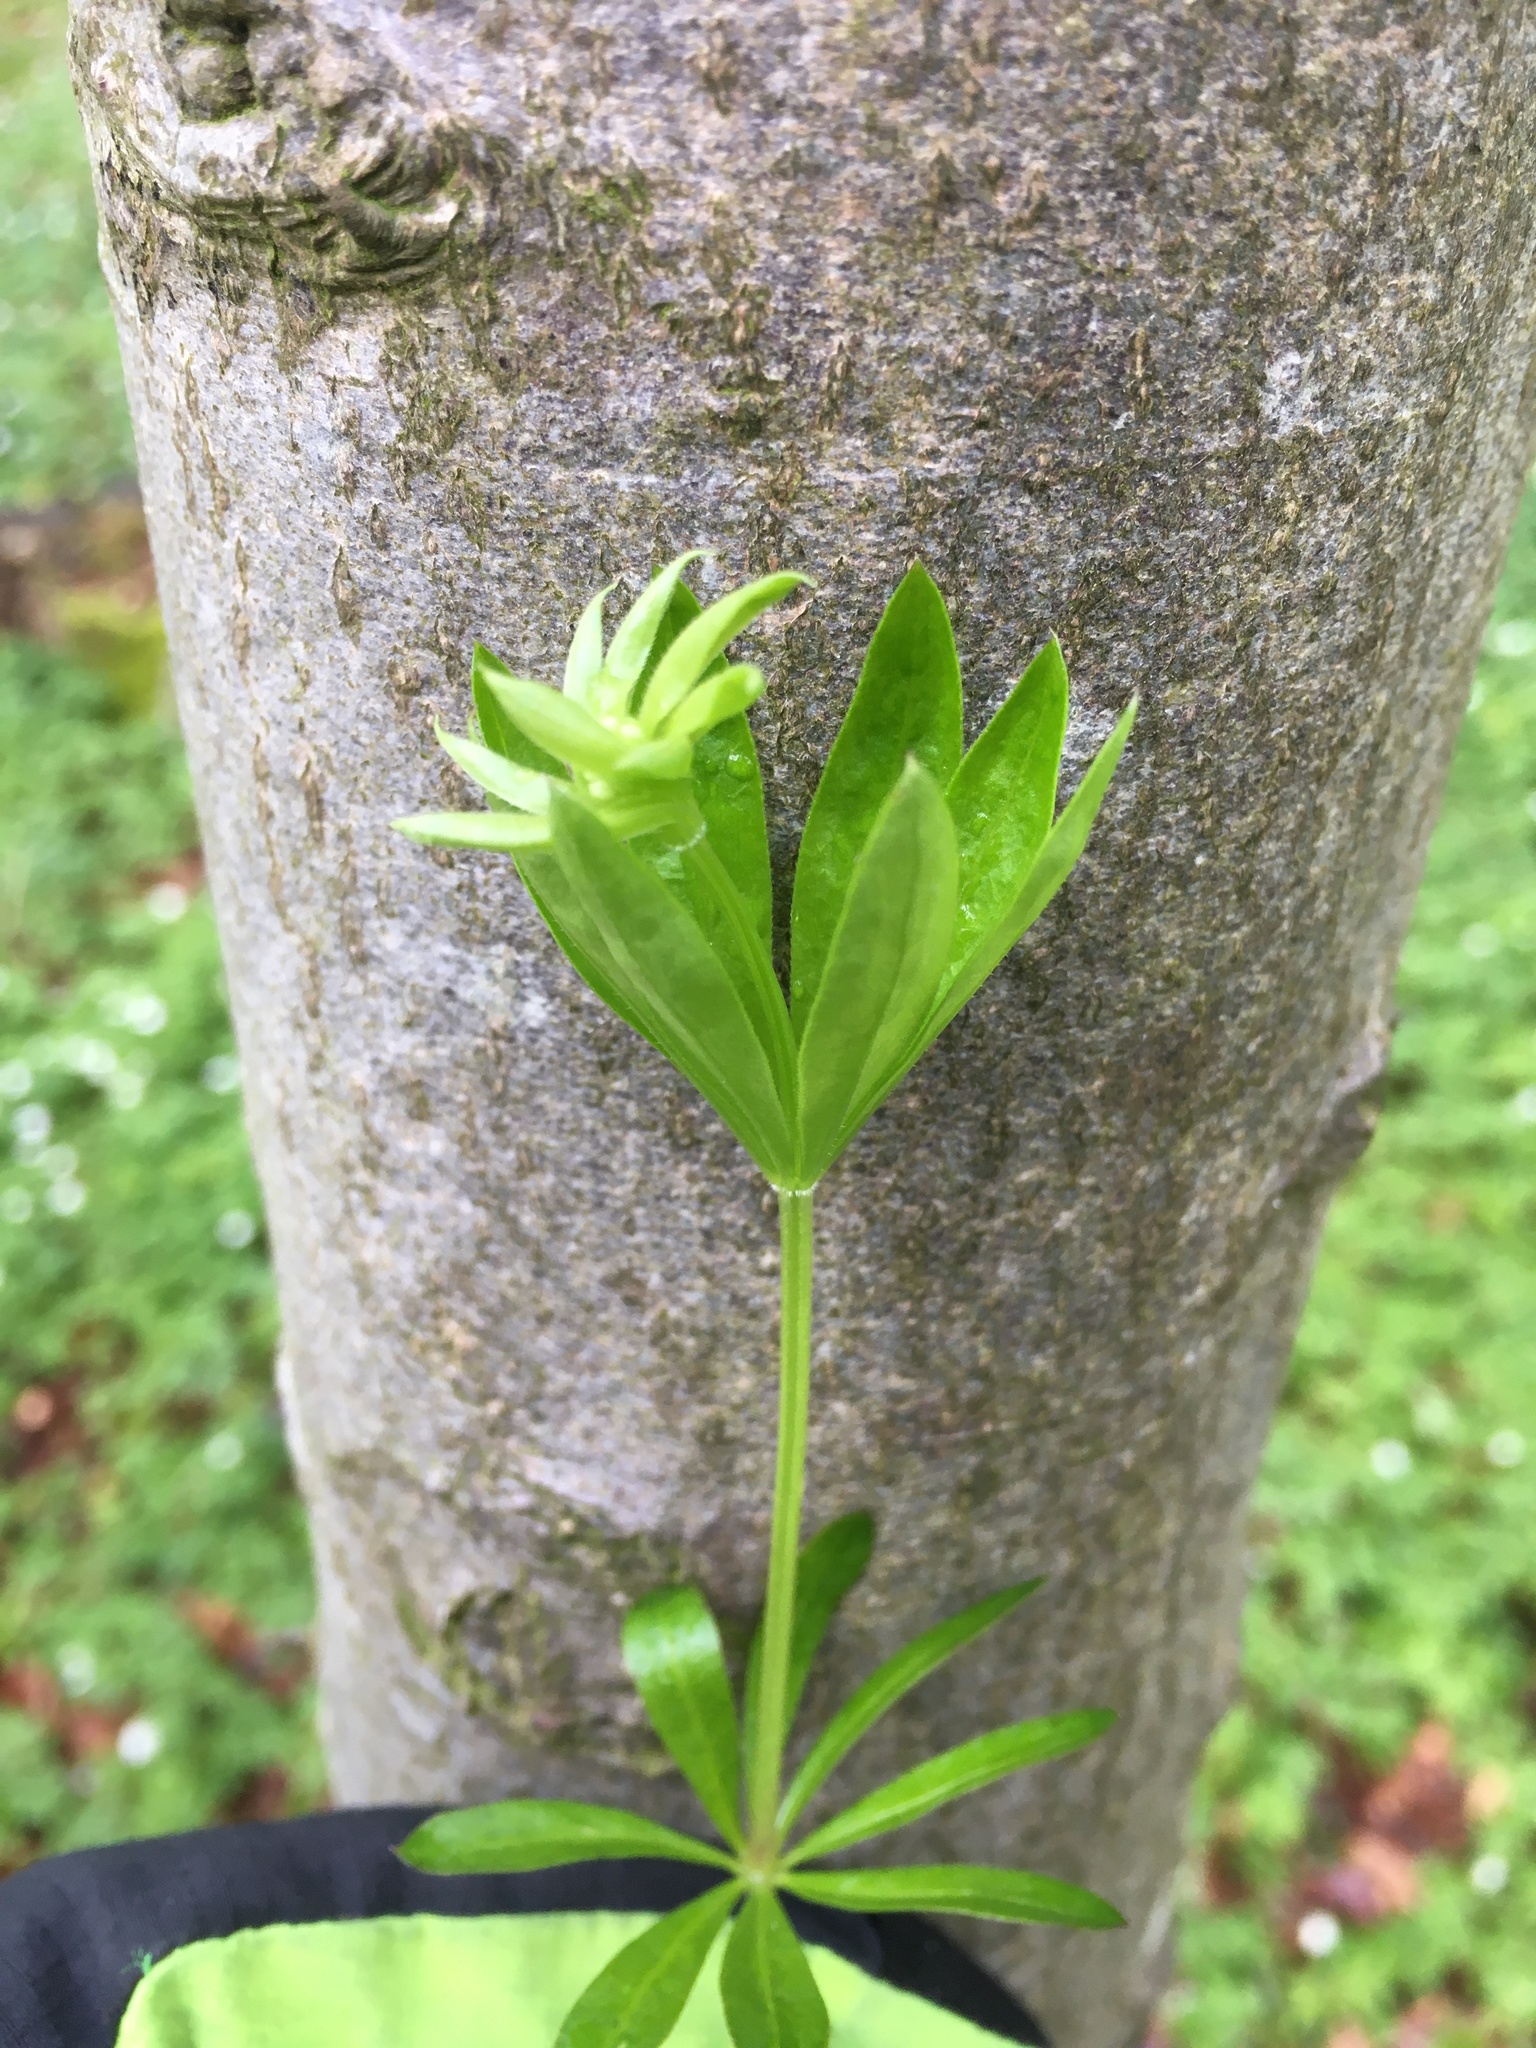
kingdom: Plantae
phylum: Tracheophyta
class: Magnoliopsida
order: Gentianales
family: Rubiaceae
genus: Galium
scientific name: Galium odoratum
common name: Sweet woodruff
